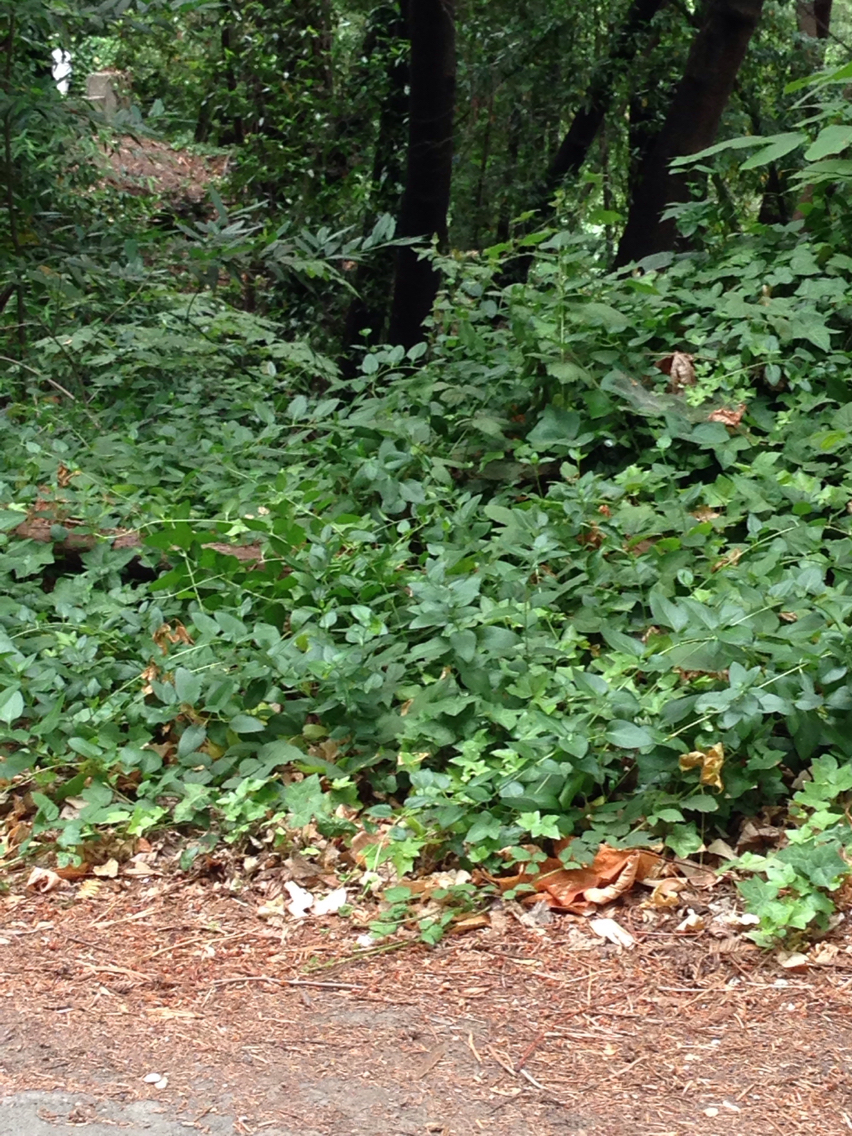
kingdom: Plantae
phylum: Tracheophyta
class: Magnoliopsida
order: Gentianales
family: Apocynaceae
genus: Vinca
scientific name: Vinca major
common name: Greater periwinkle
